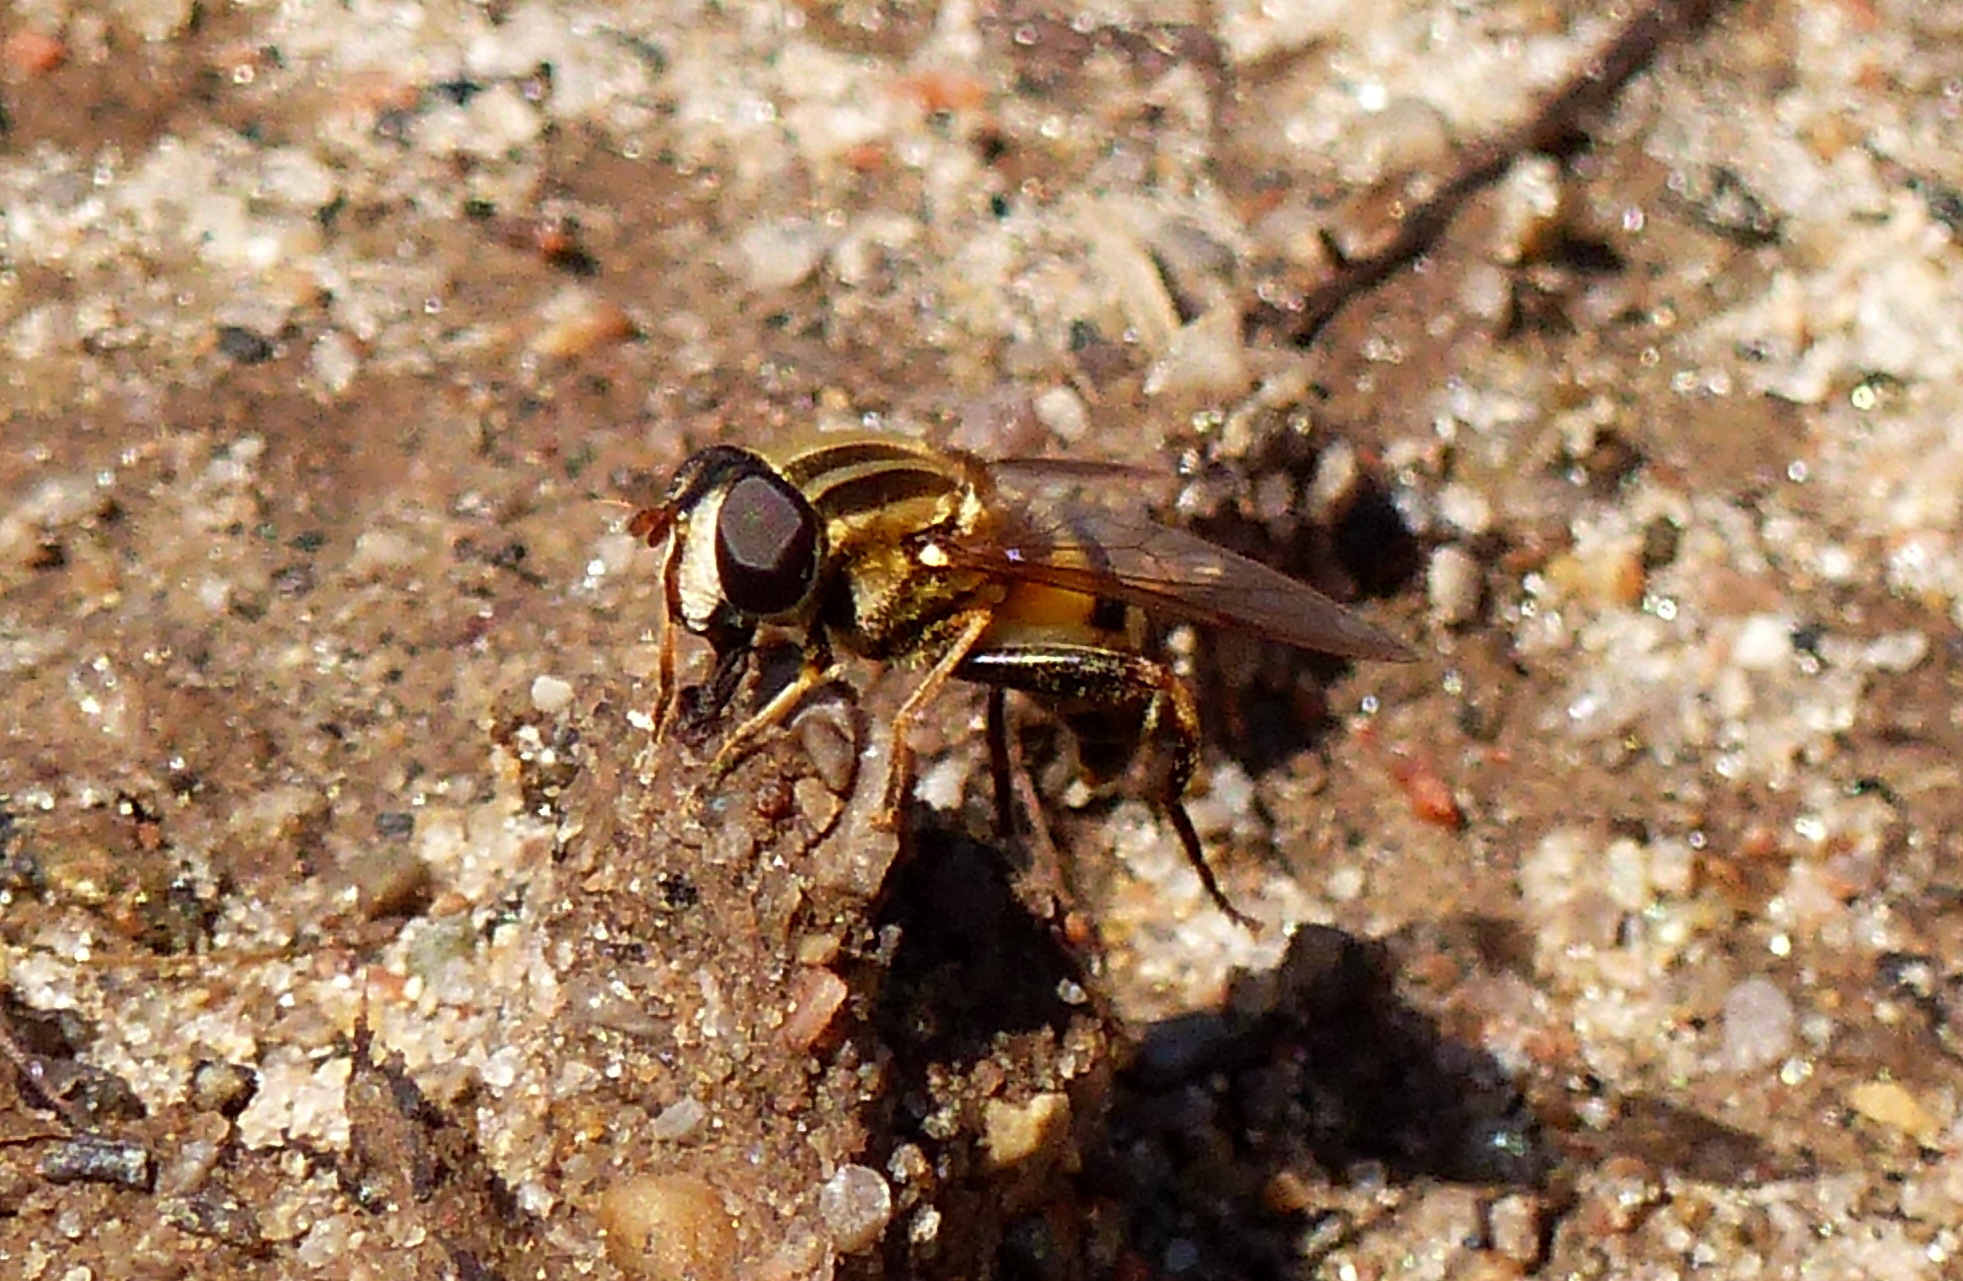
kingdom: Animalia
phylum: Arthropoda
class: Insecta
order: Diptera
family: Syrphidae
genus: Helophilus
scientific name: Helophilus fasciatus
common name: Narrow-headed marsh fly
